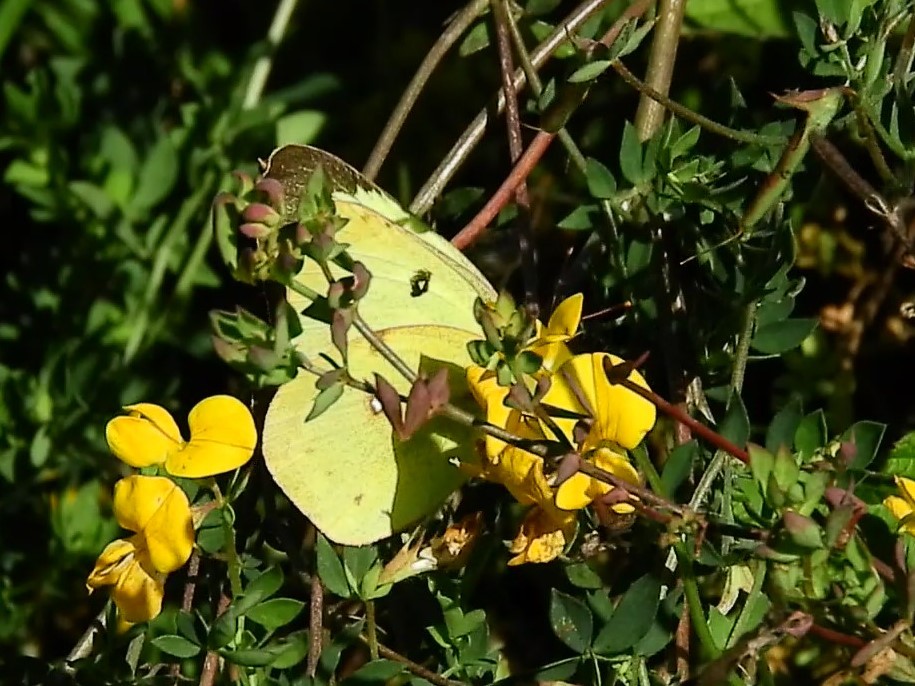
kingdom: Animalia
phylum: Arthropoda
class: Insecta
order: Lepidoptera
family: Pieridae
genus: Colias
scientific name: Colias philodice
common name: Clouded sulphur
